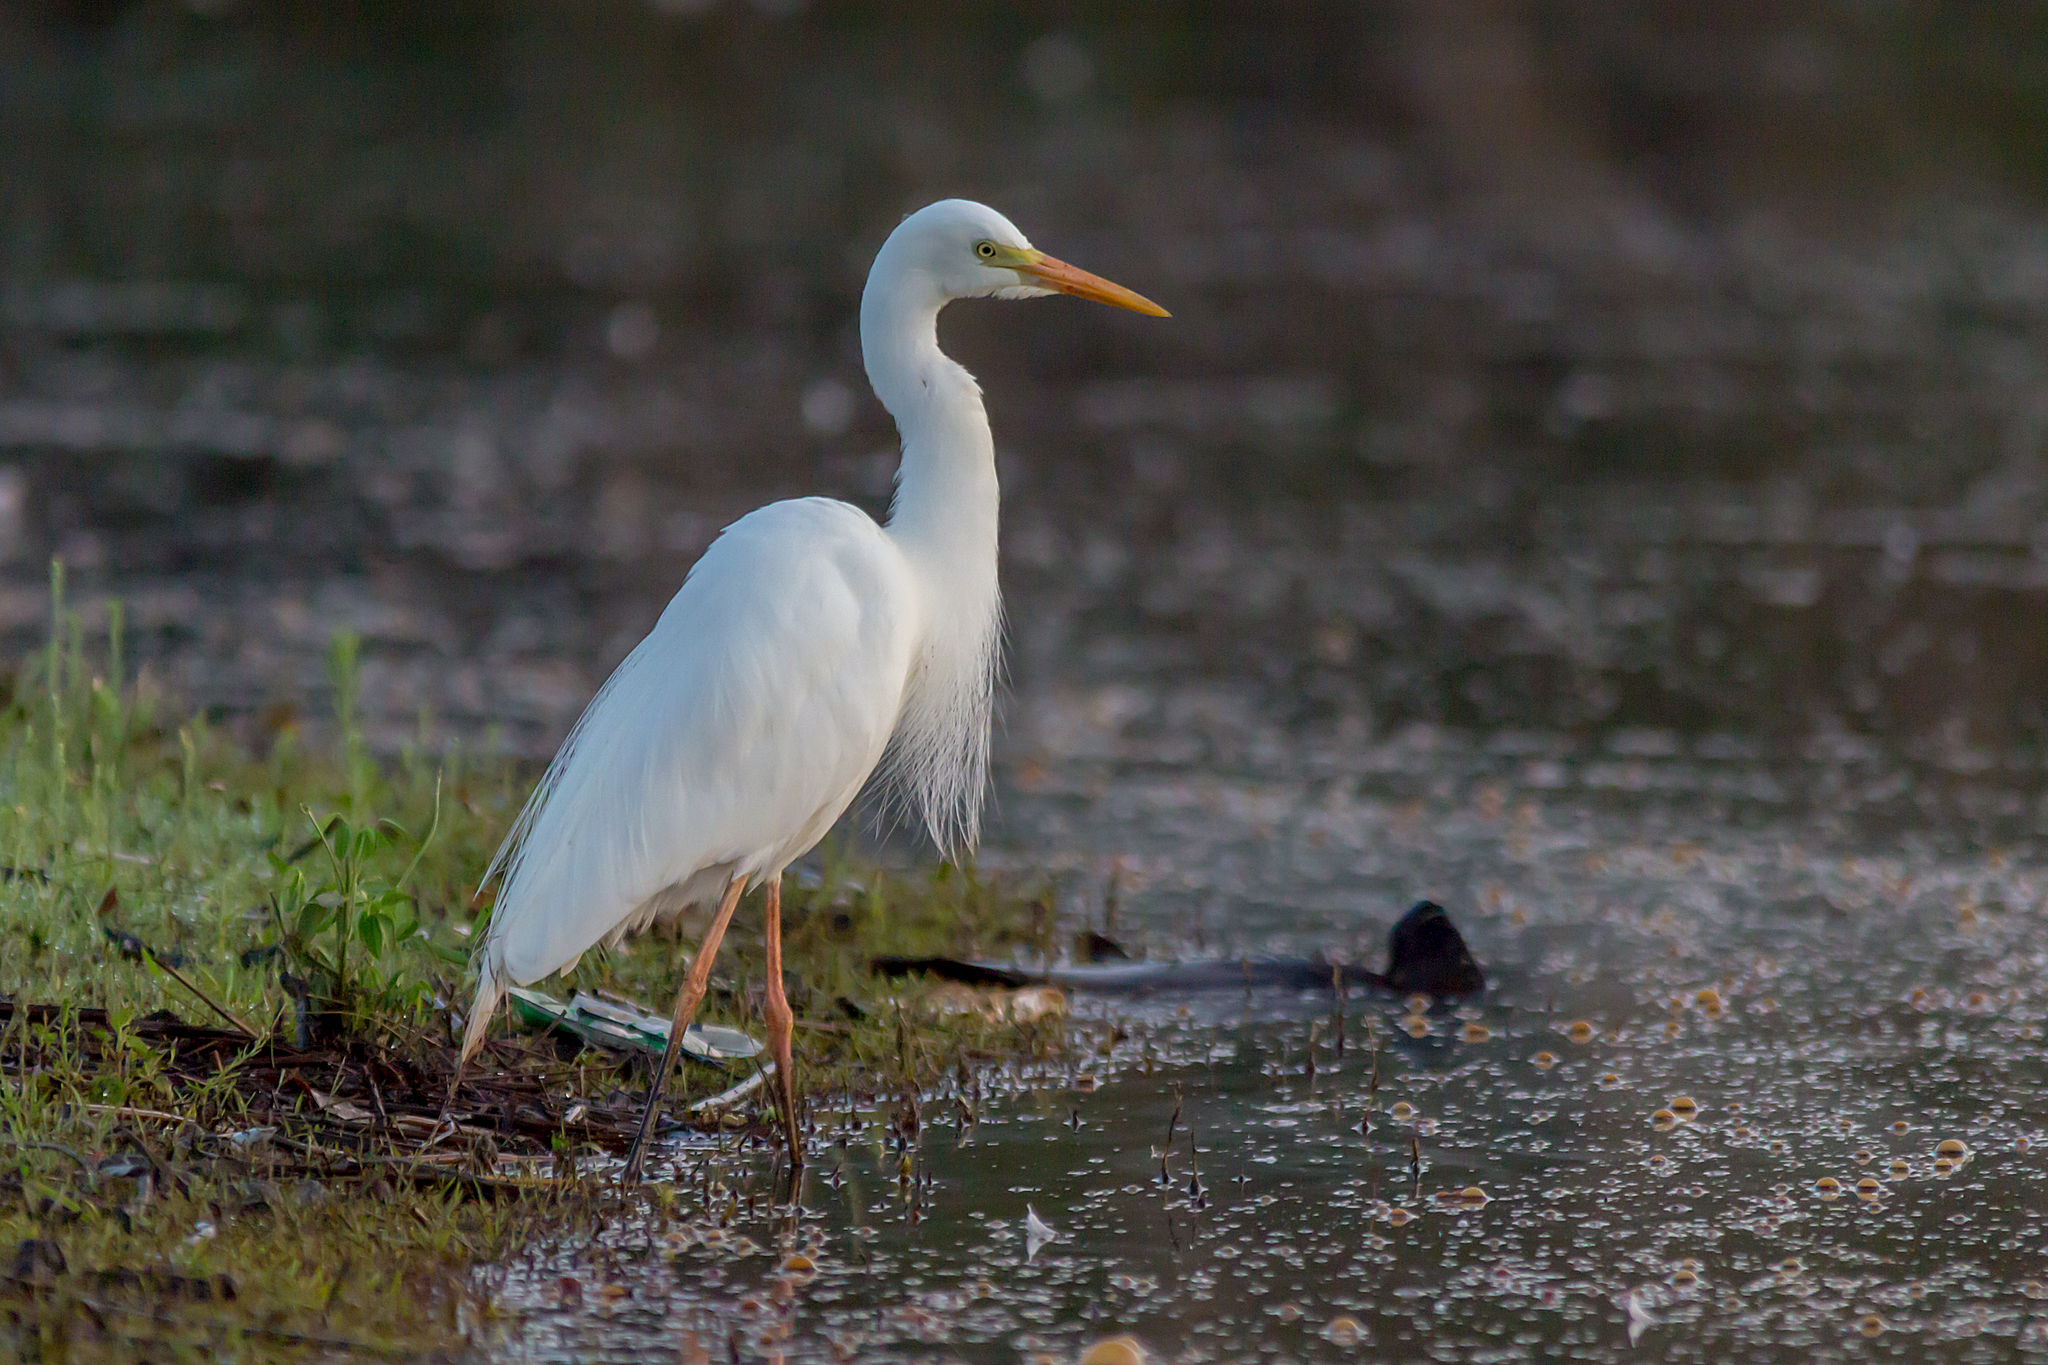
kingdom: Animalia
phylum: Chordata
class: Aves
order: Pelecaniformes
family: Ardeidae
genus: Egretta
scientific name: Egretta intermedia
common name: Intermediate egret
